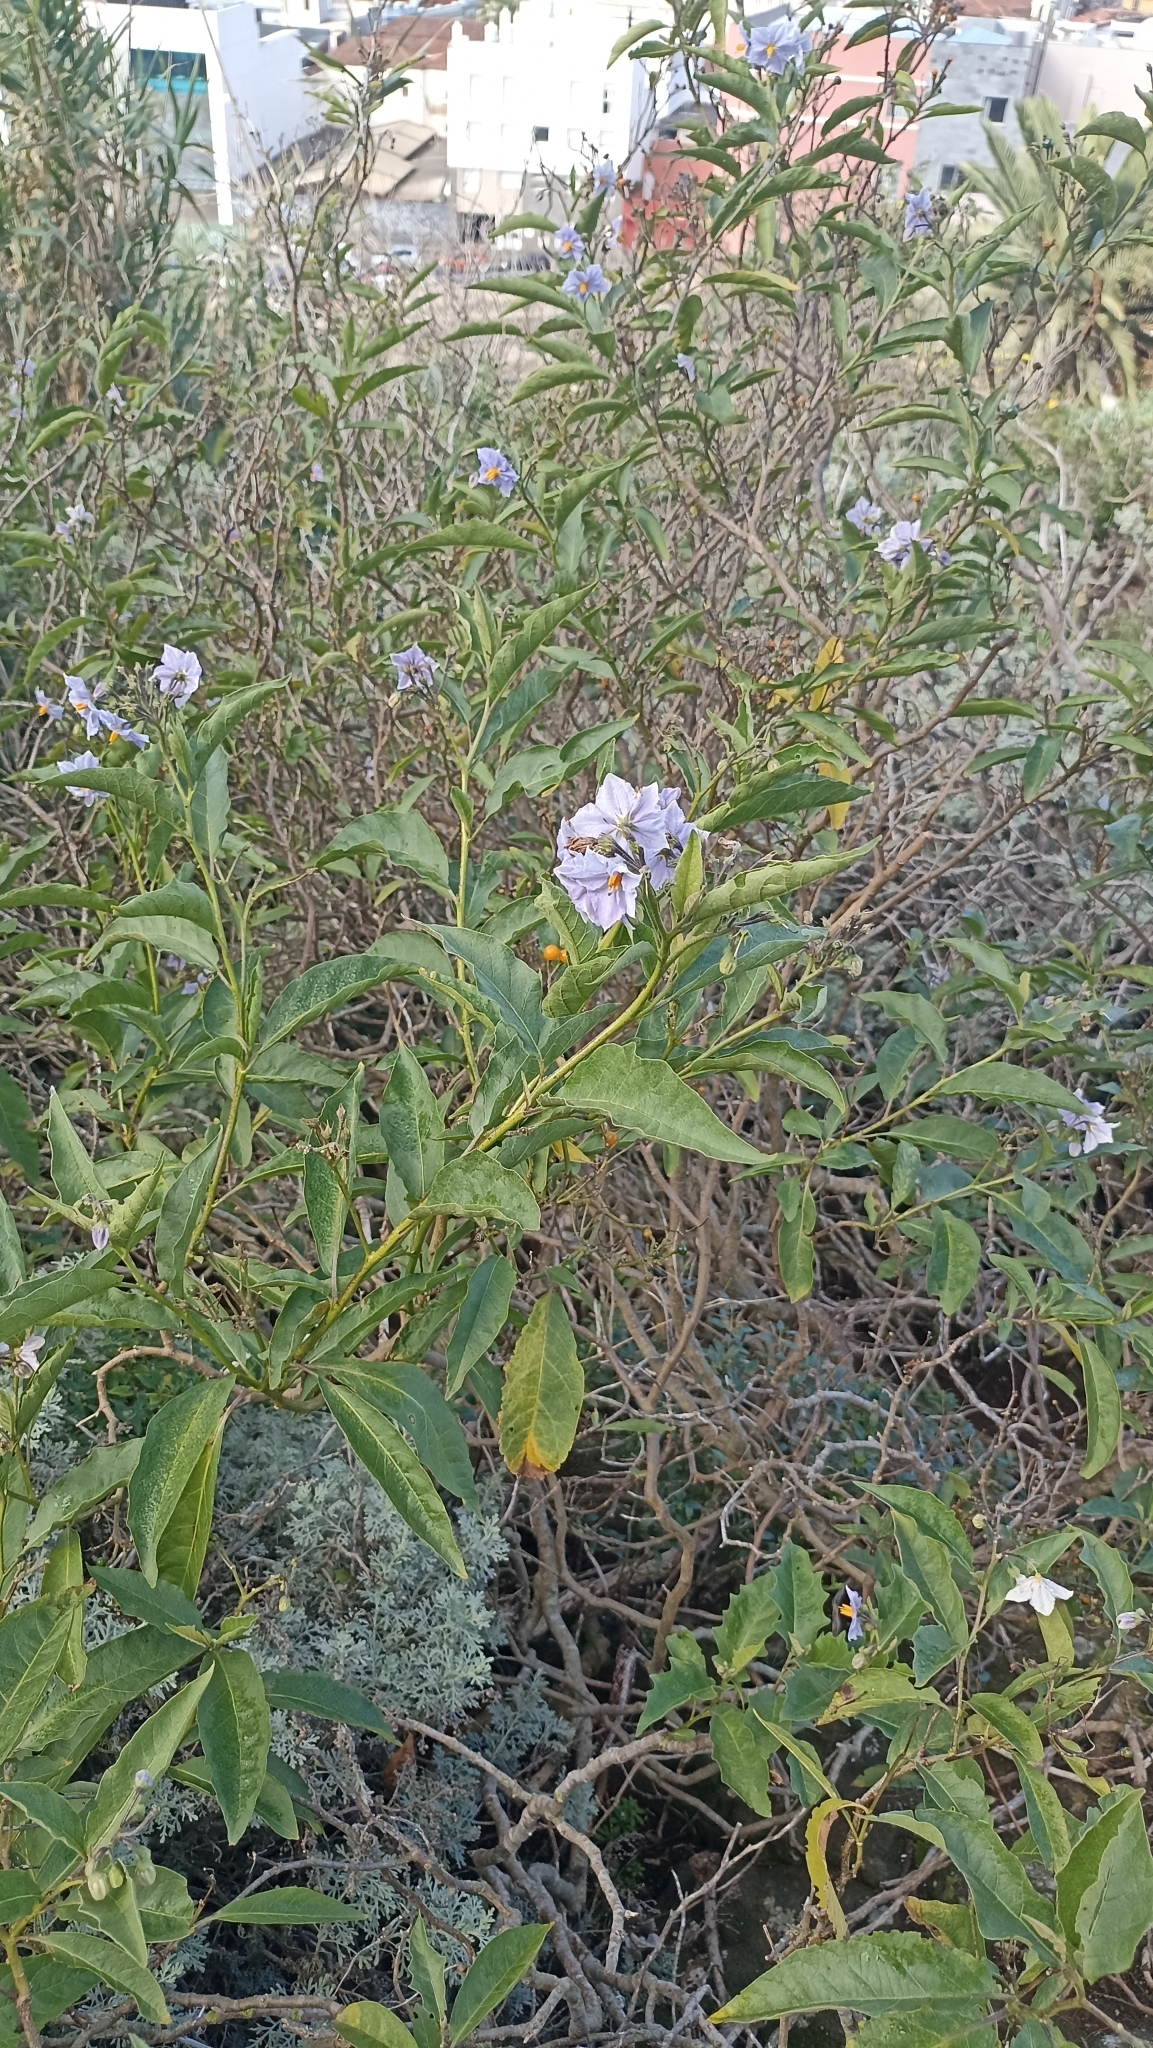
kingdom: Plantae
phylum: Tracheophyta
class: Magnoliopsida
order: Solanales
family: Solanaceae
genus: Solanum
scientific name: Solanum bonariense
